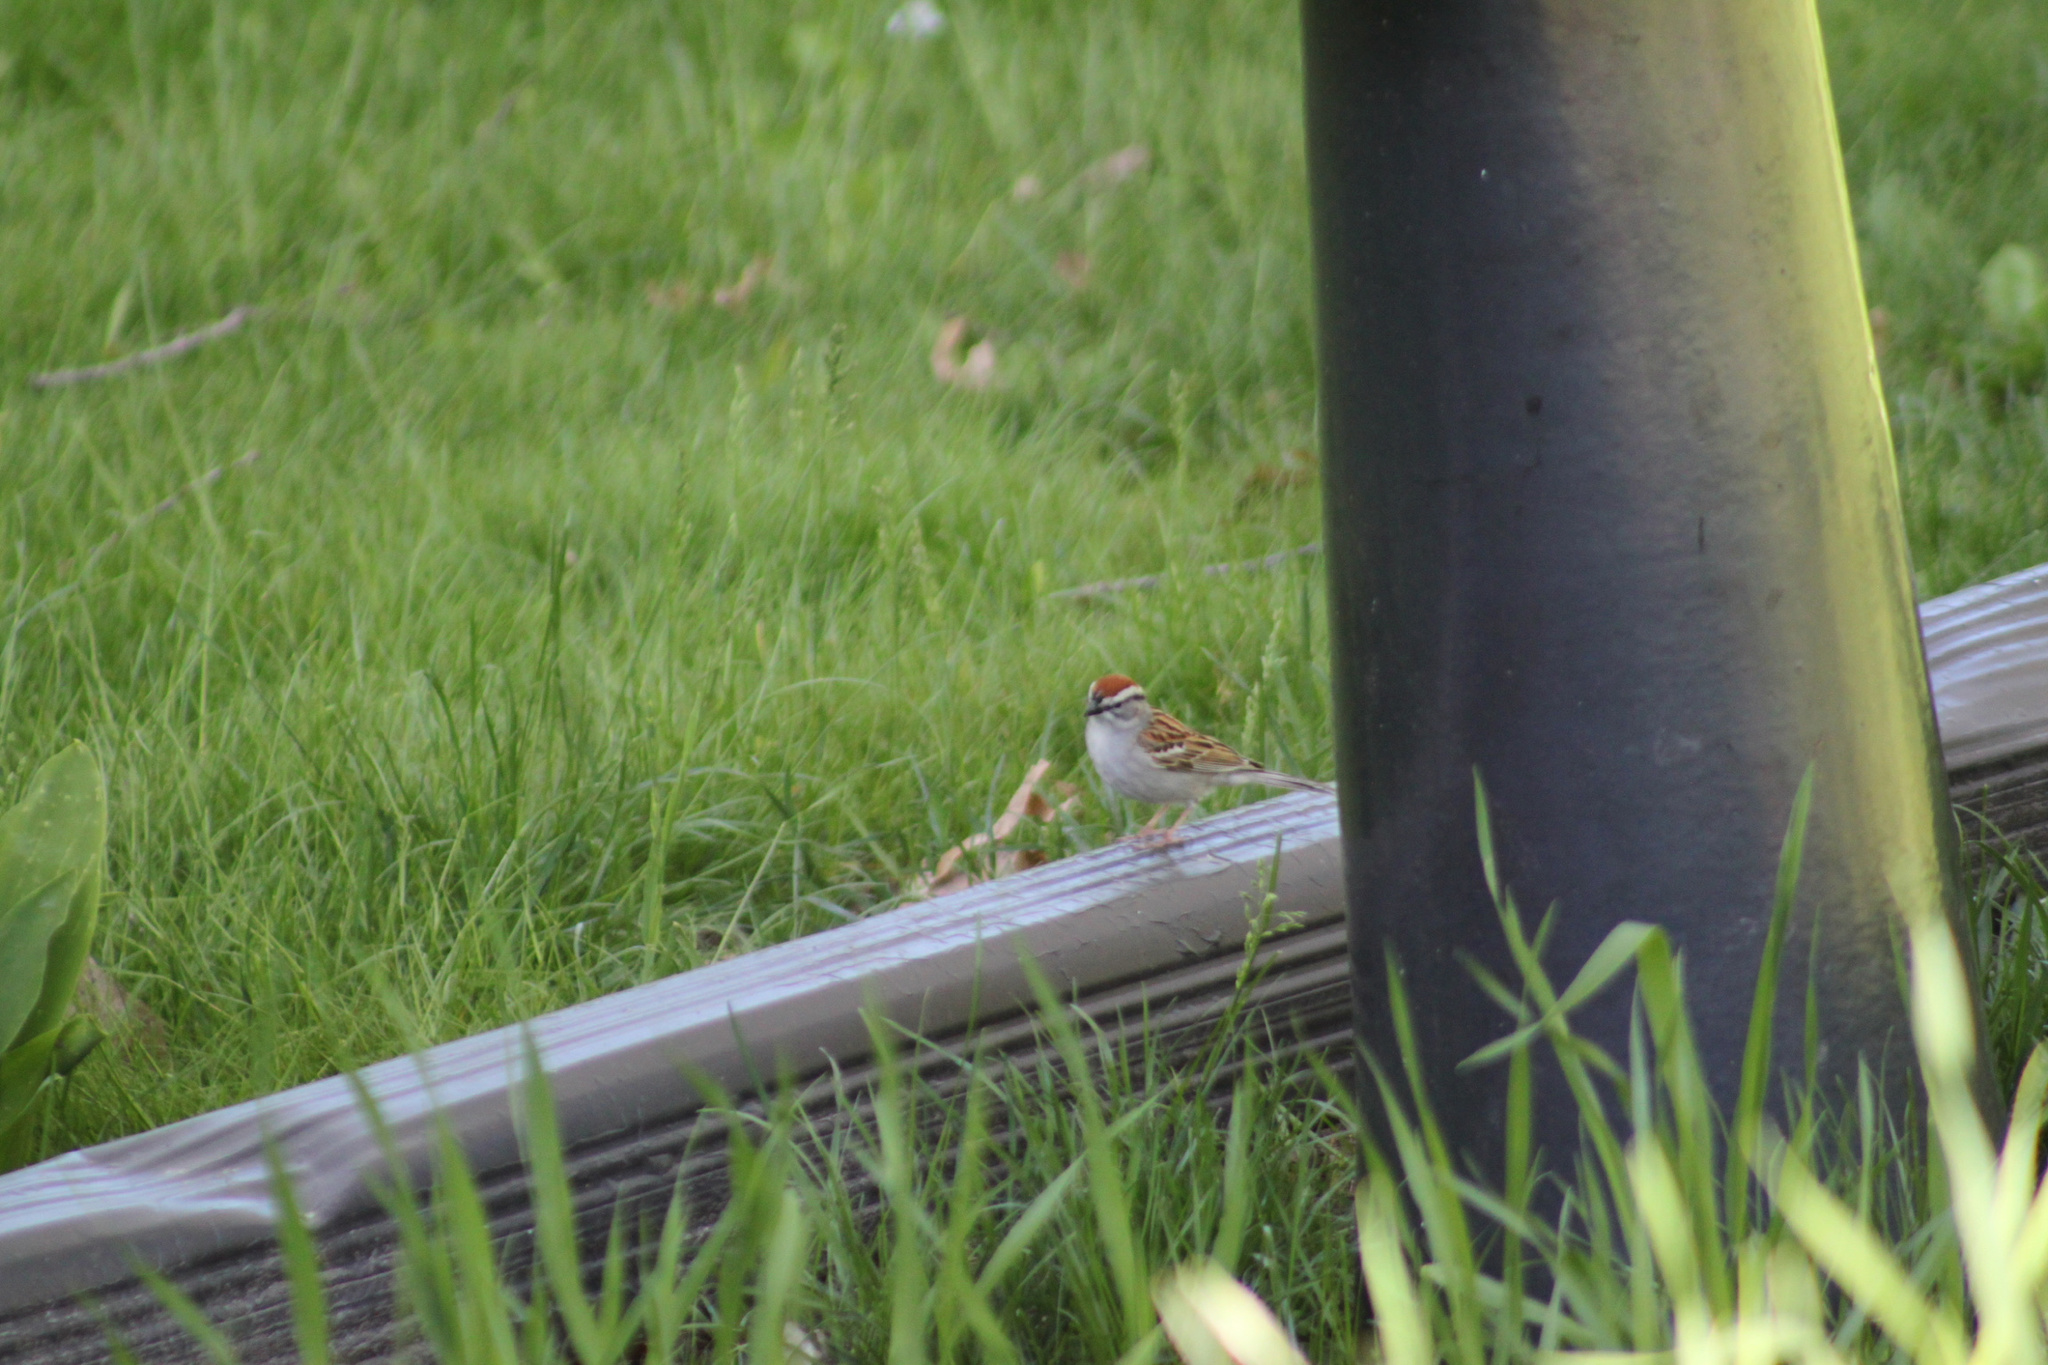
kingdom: Animalia
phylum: Chordata
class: Aves
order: Passeriformes
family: Passerellidae
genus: Spizella
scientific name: Spizella passerina
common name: Chipping sparrow
